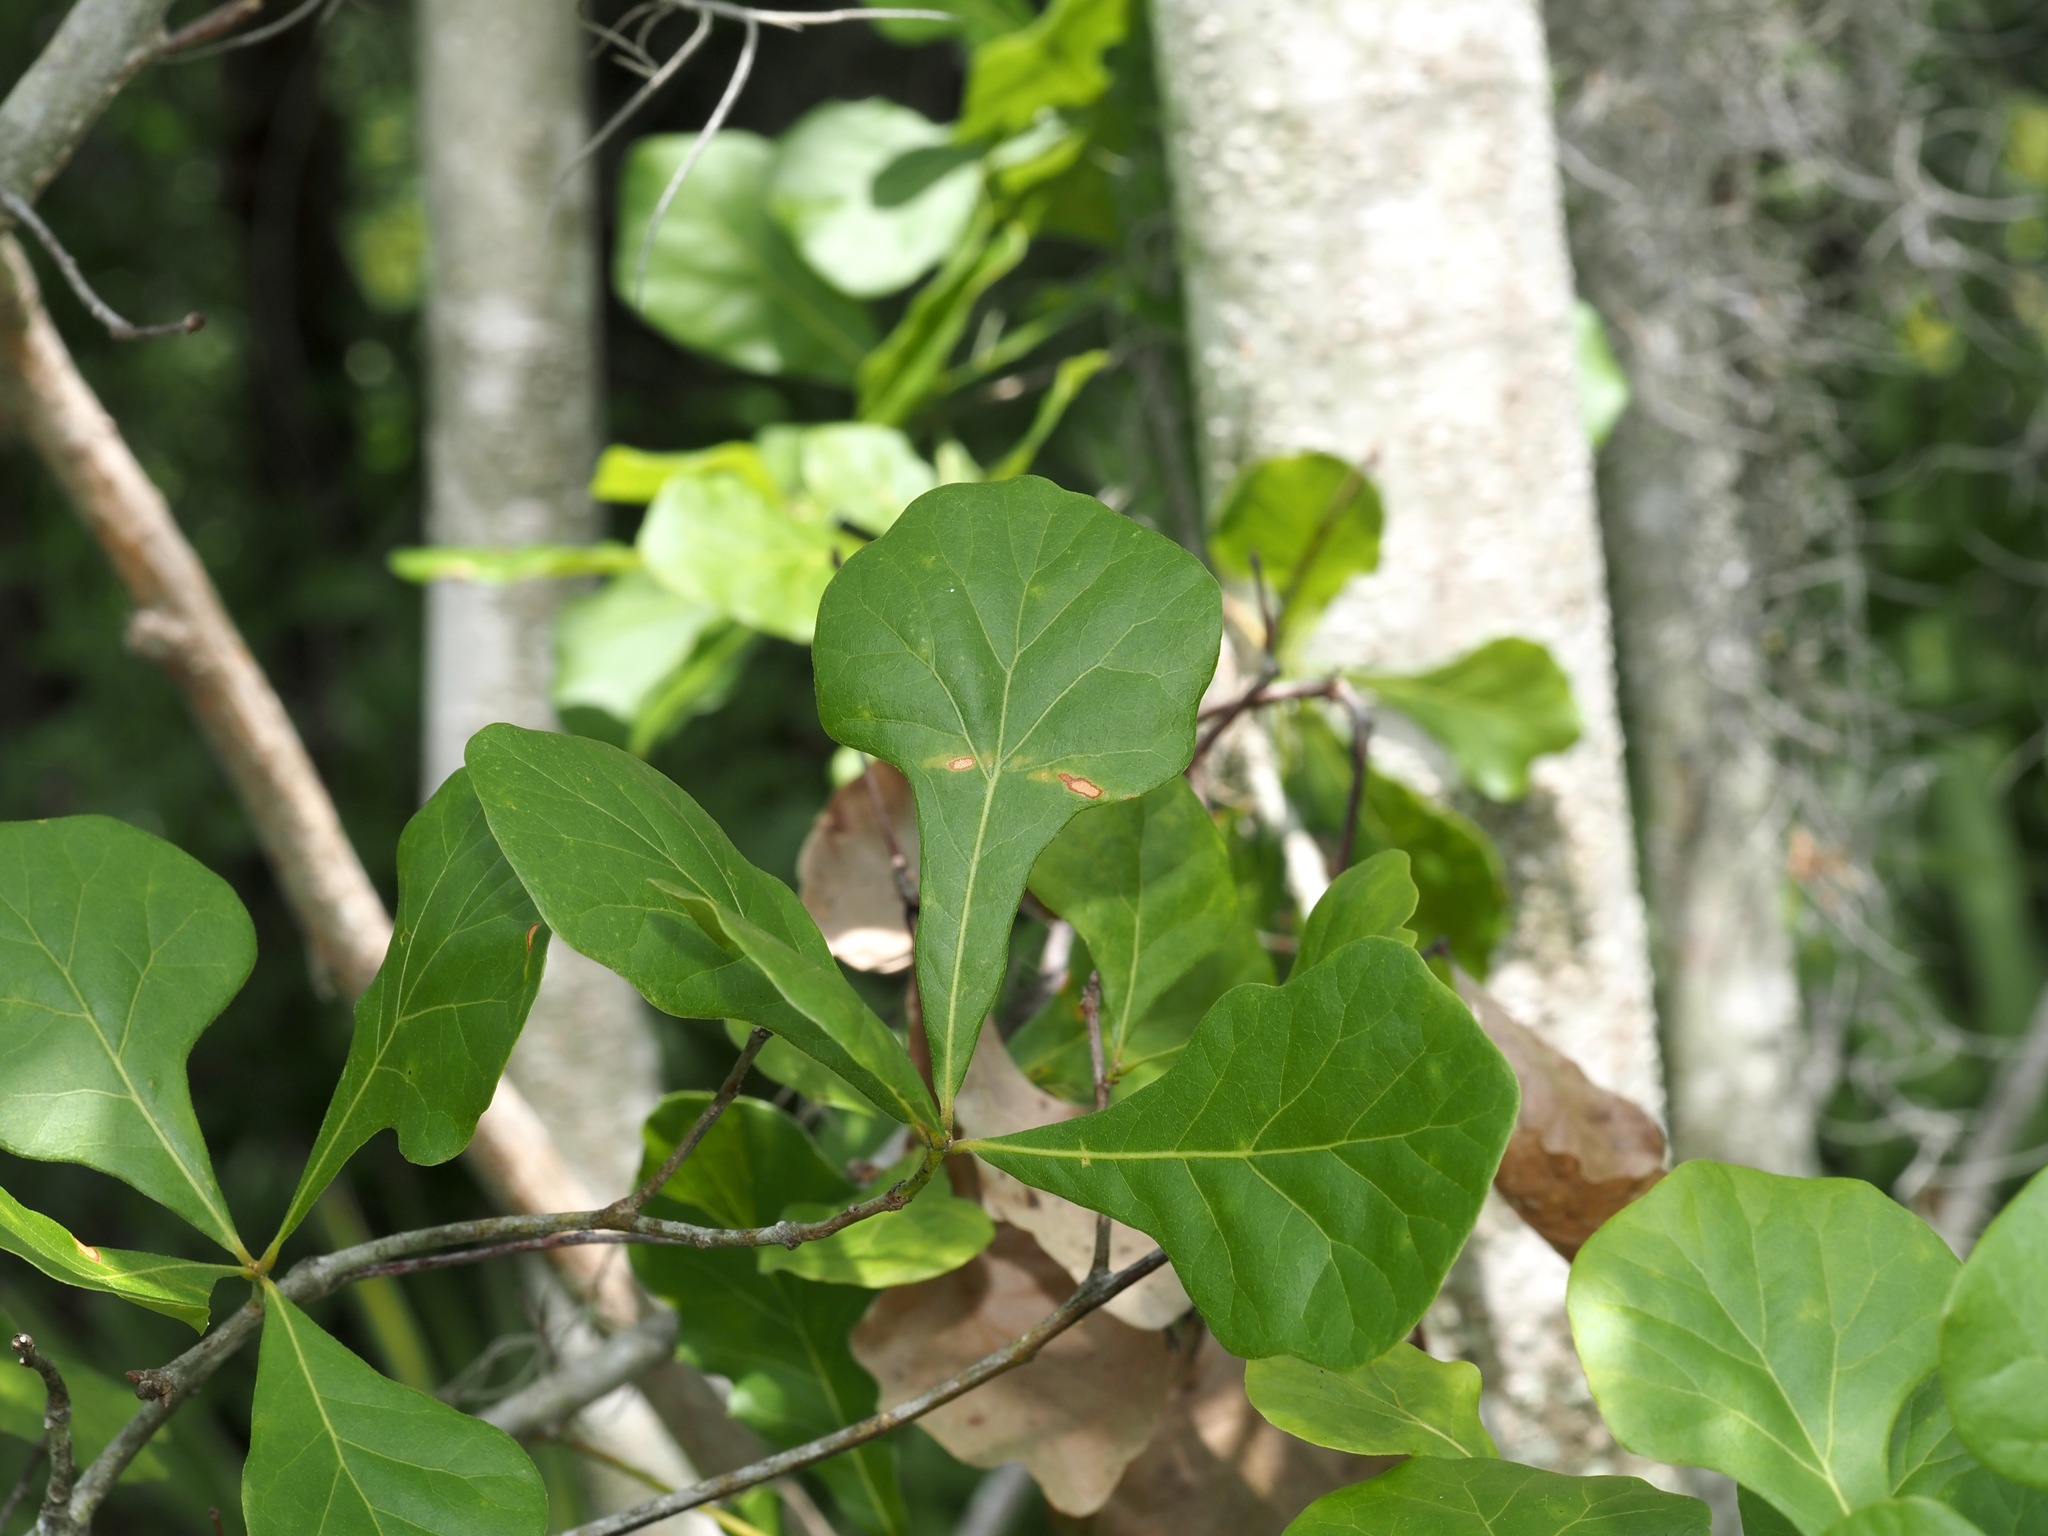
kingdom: Plantae
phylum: Tracheophyta
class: Magnoliopsida
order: Fagales
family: Fagaceae
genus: Quercus
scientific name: Quercus nigra
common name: Water oak
